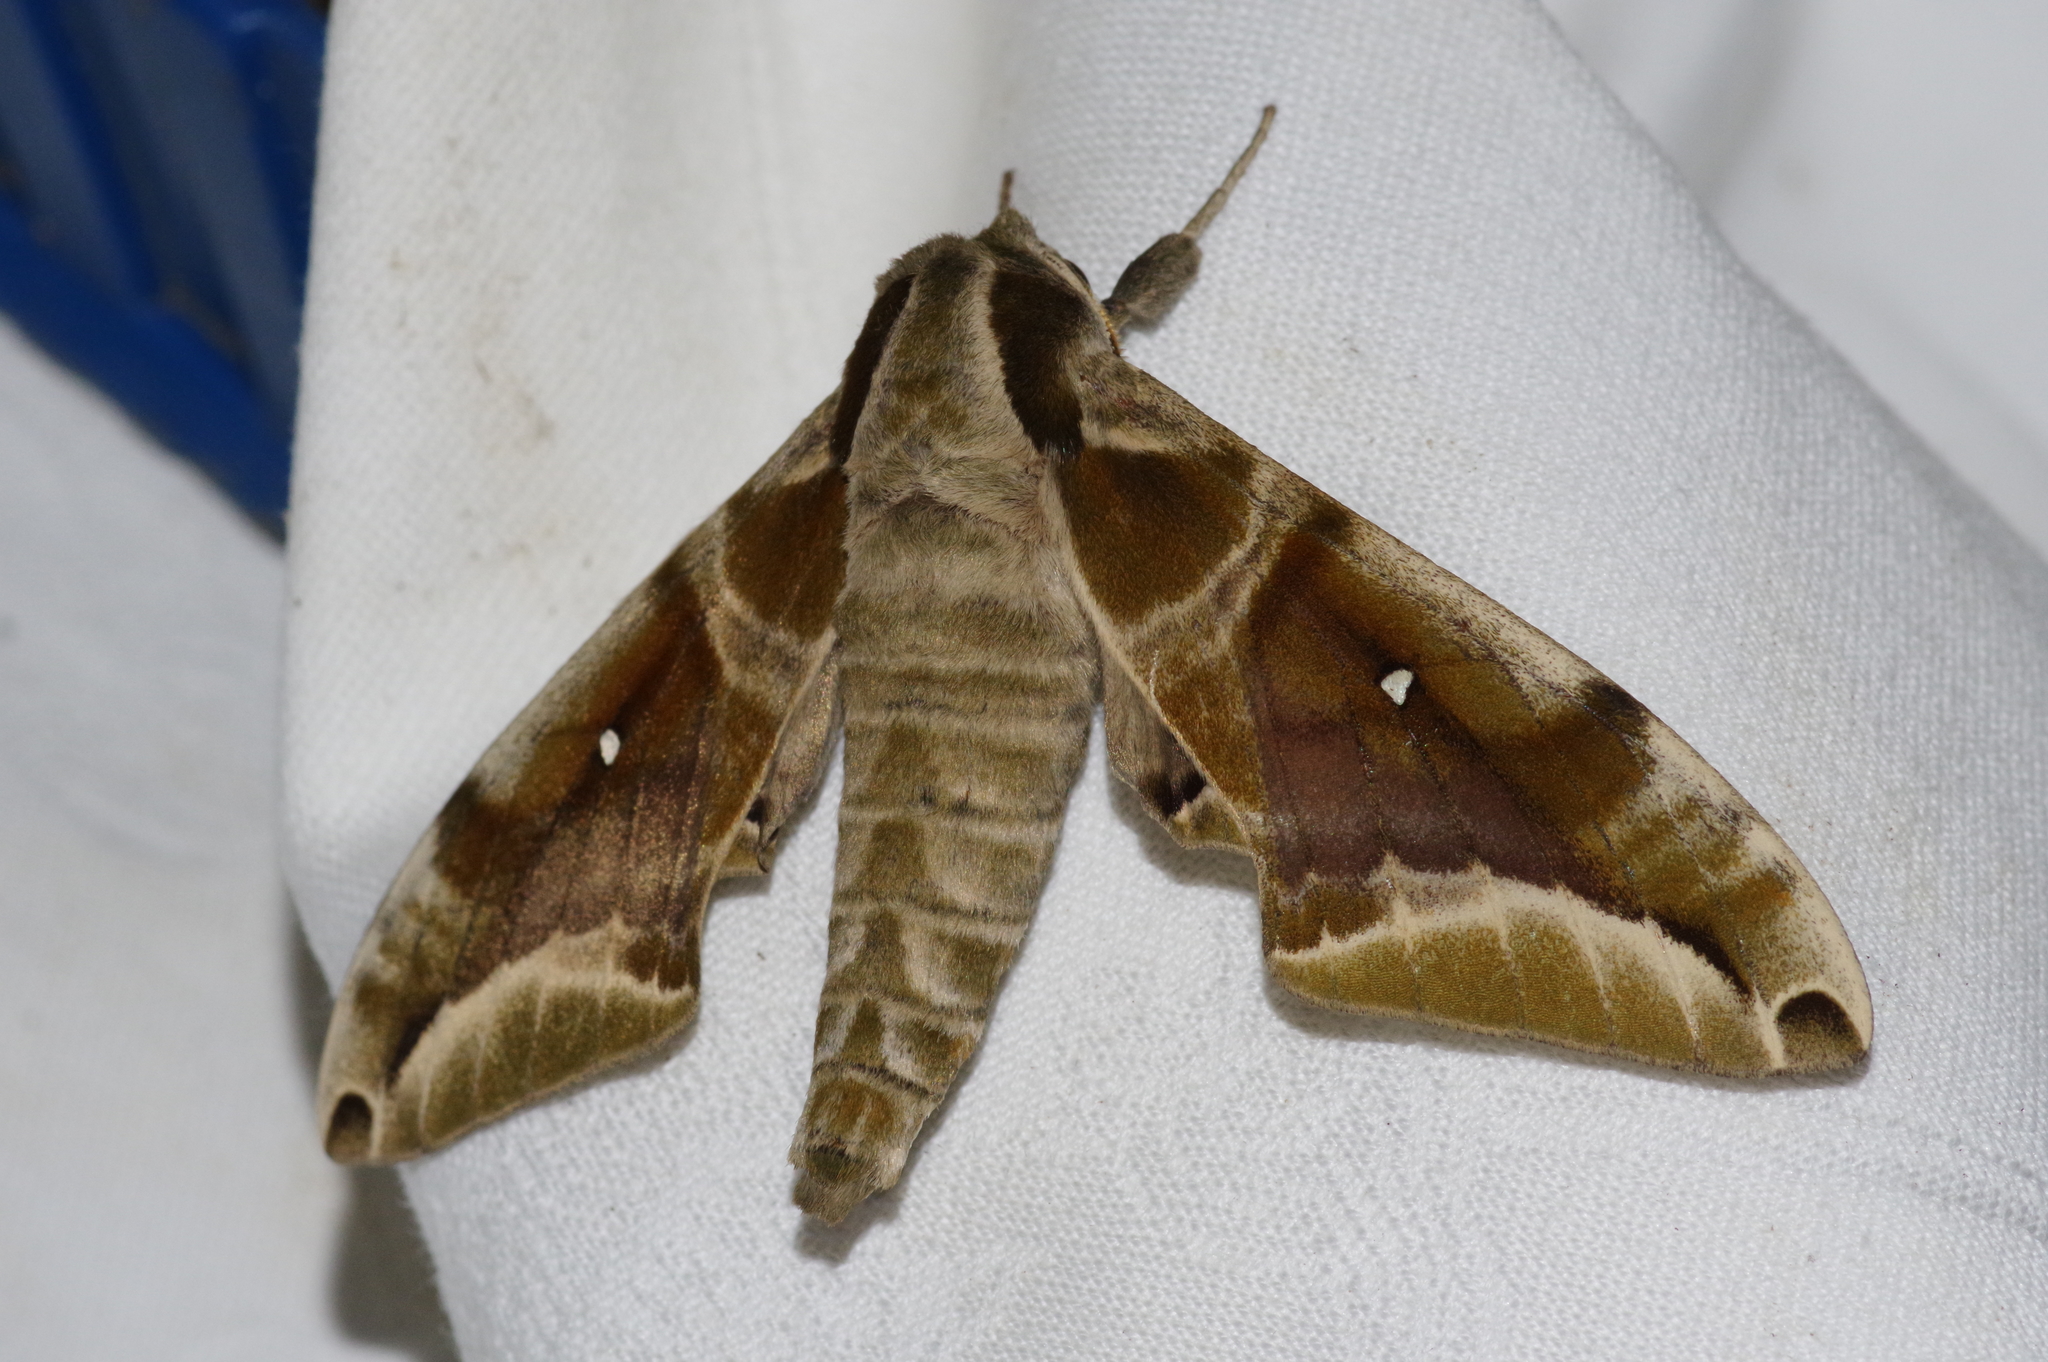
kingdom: Animalia
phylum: Arthropoda
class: Insecta
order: Lepidoptera
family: Sphingidae
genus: Parum
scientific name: Parum colligata
